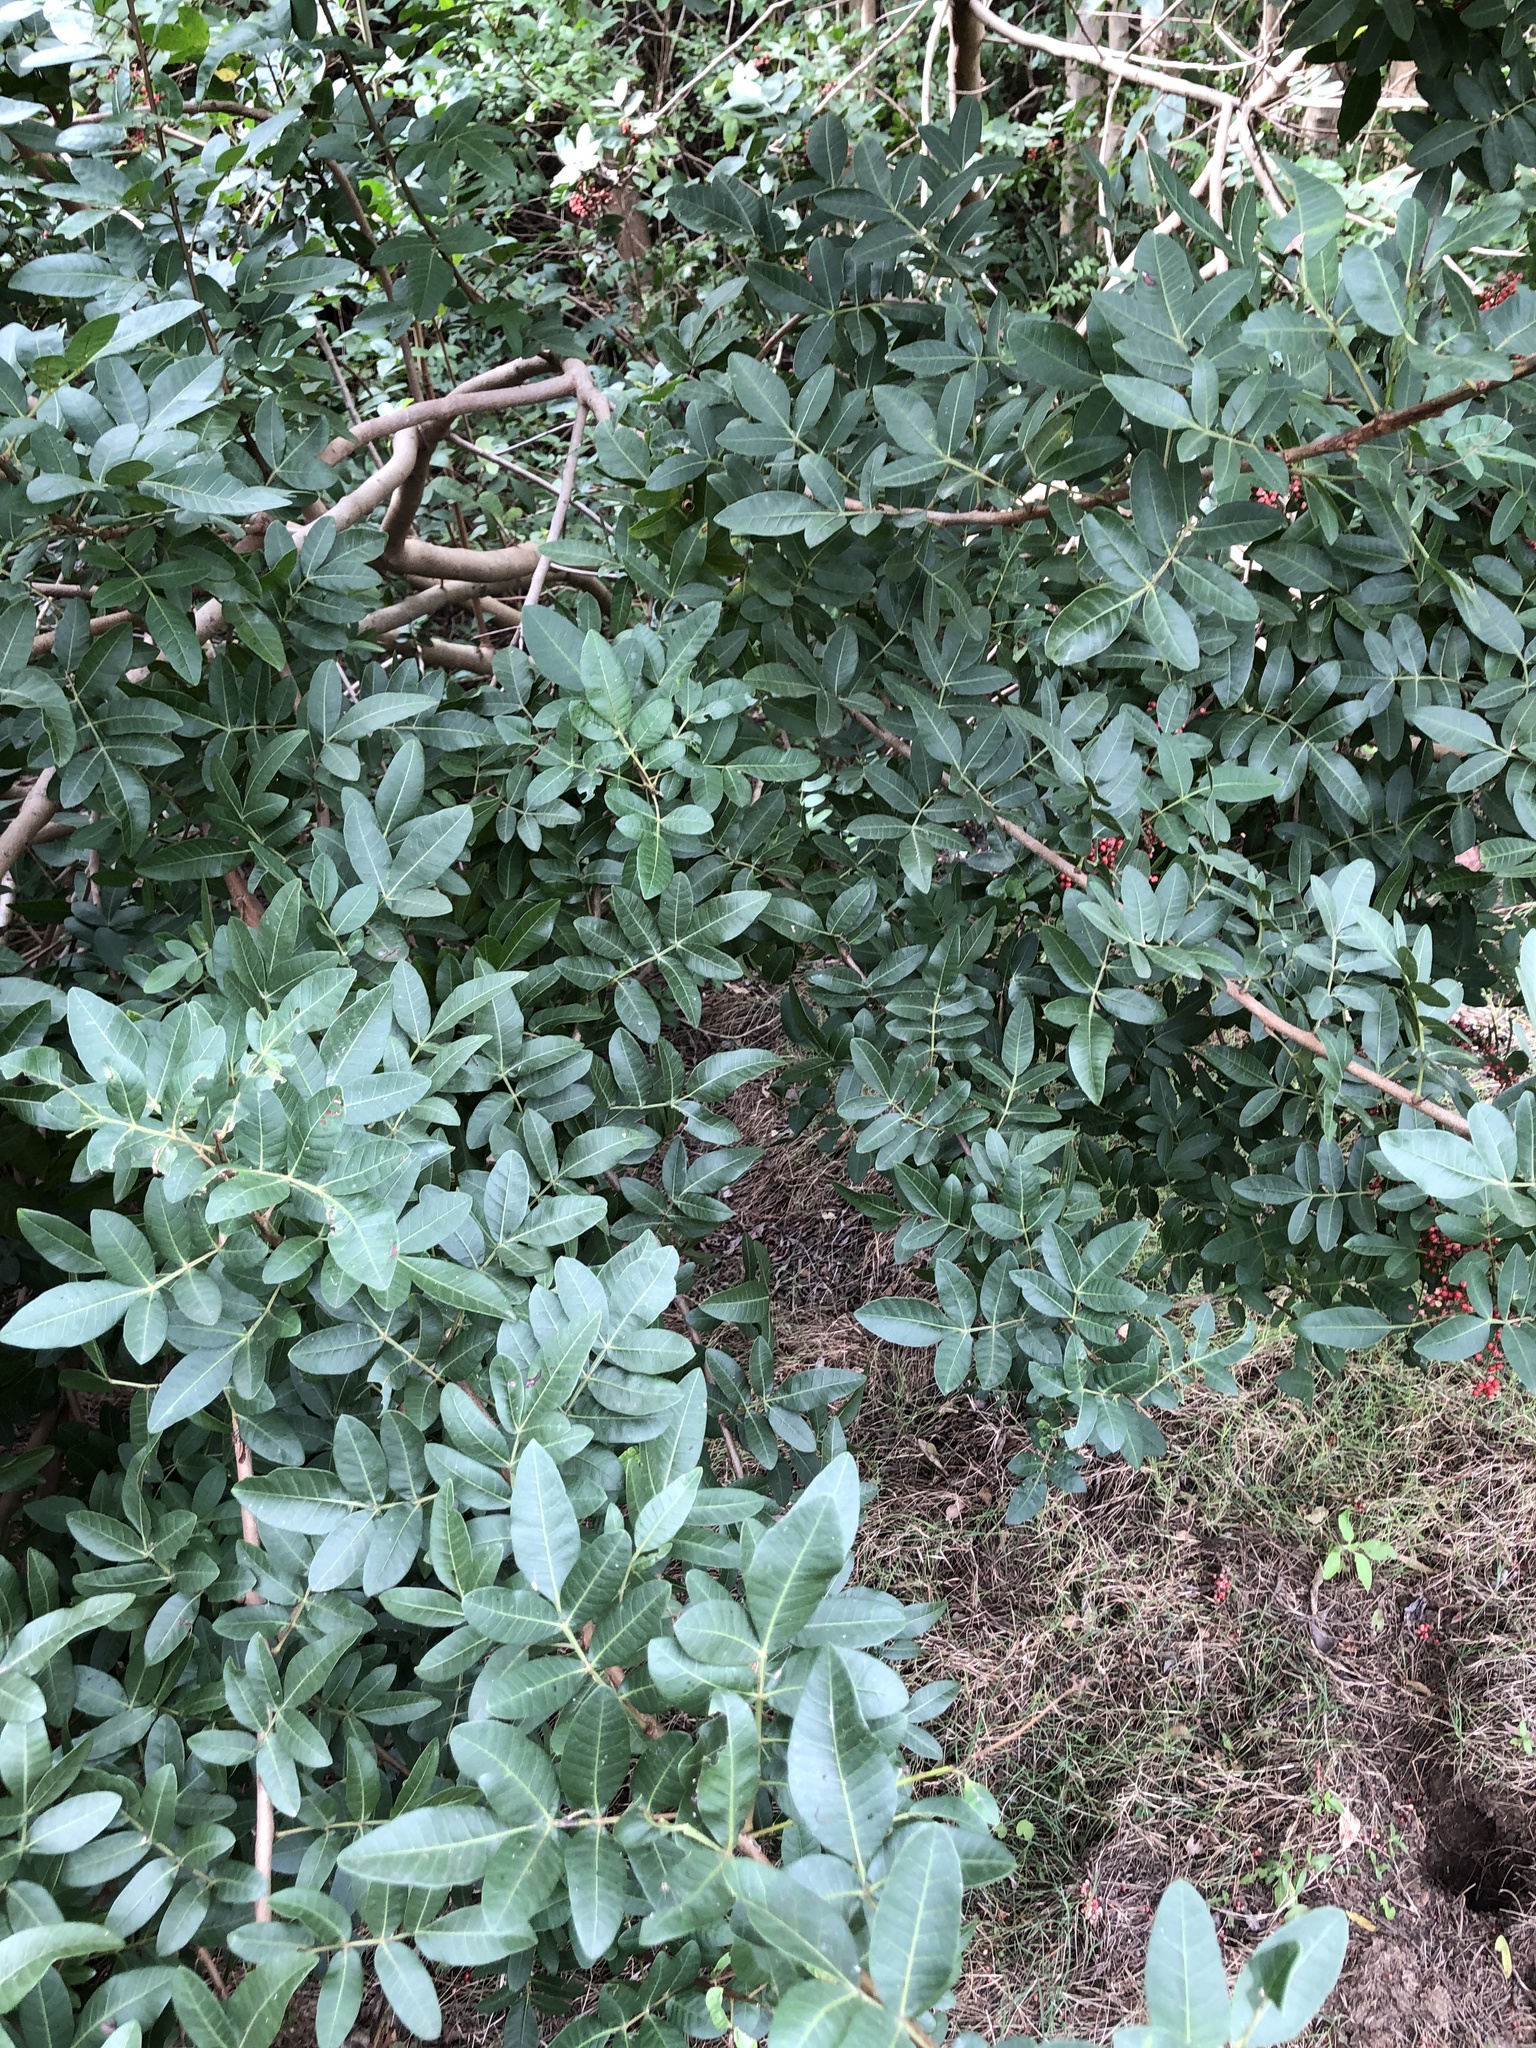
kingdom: Plantae
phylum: Tracheophyta
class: Magnoliopsida
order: Sapindales
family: Anacardiaceae
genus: Schinus
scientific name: Schinus terebinthifolia
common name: Brazilian peppertree
